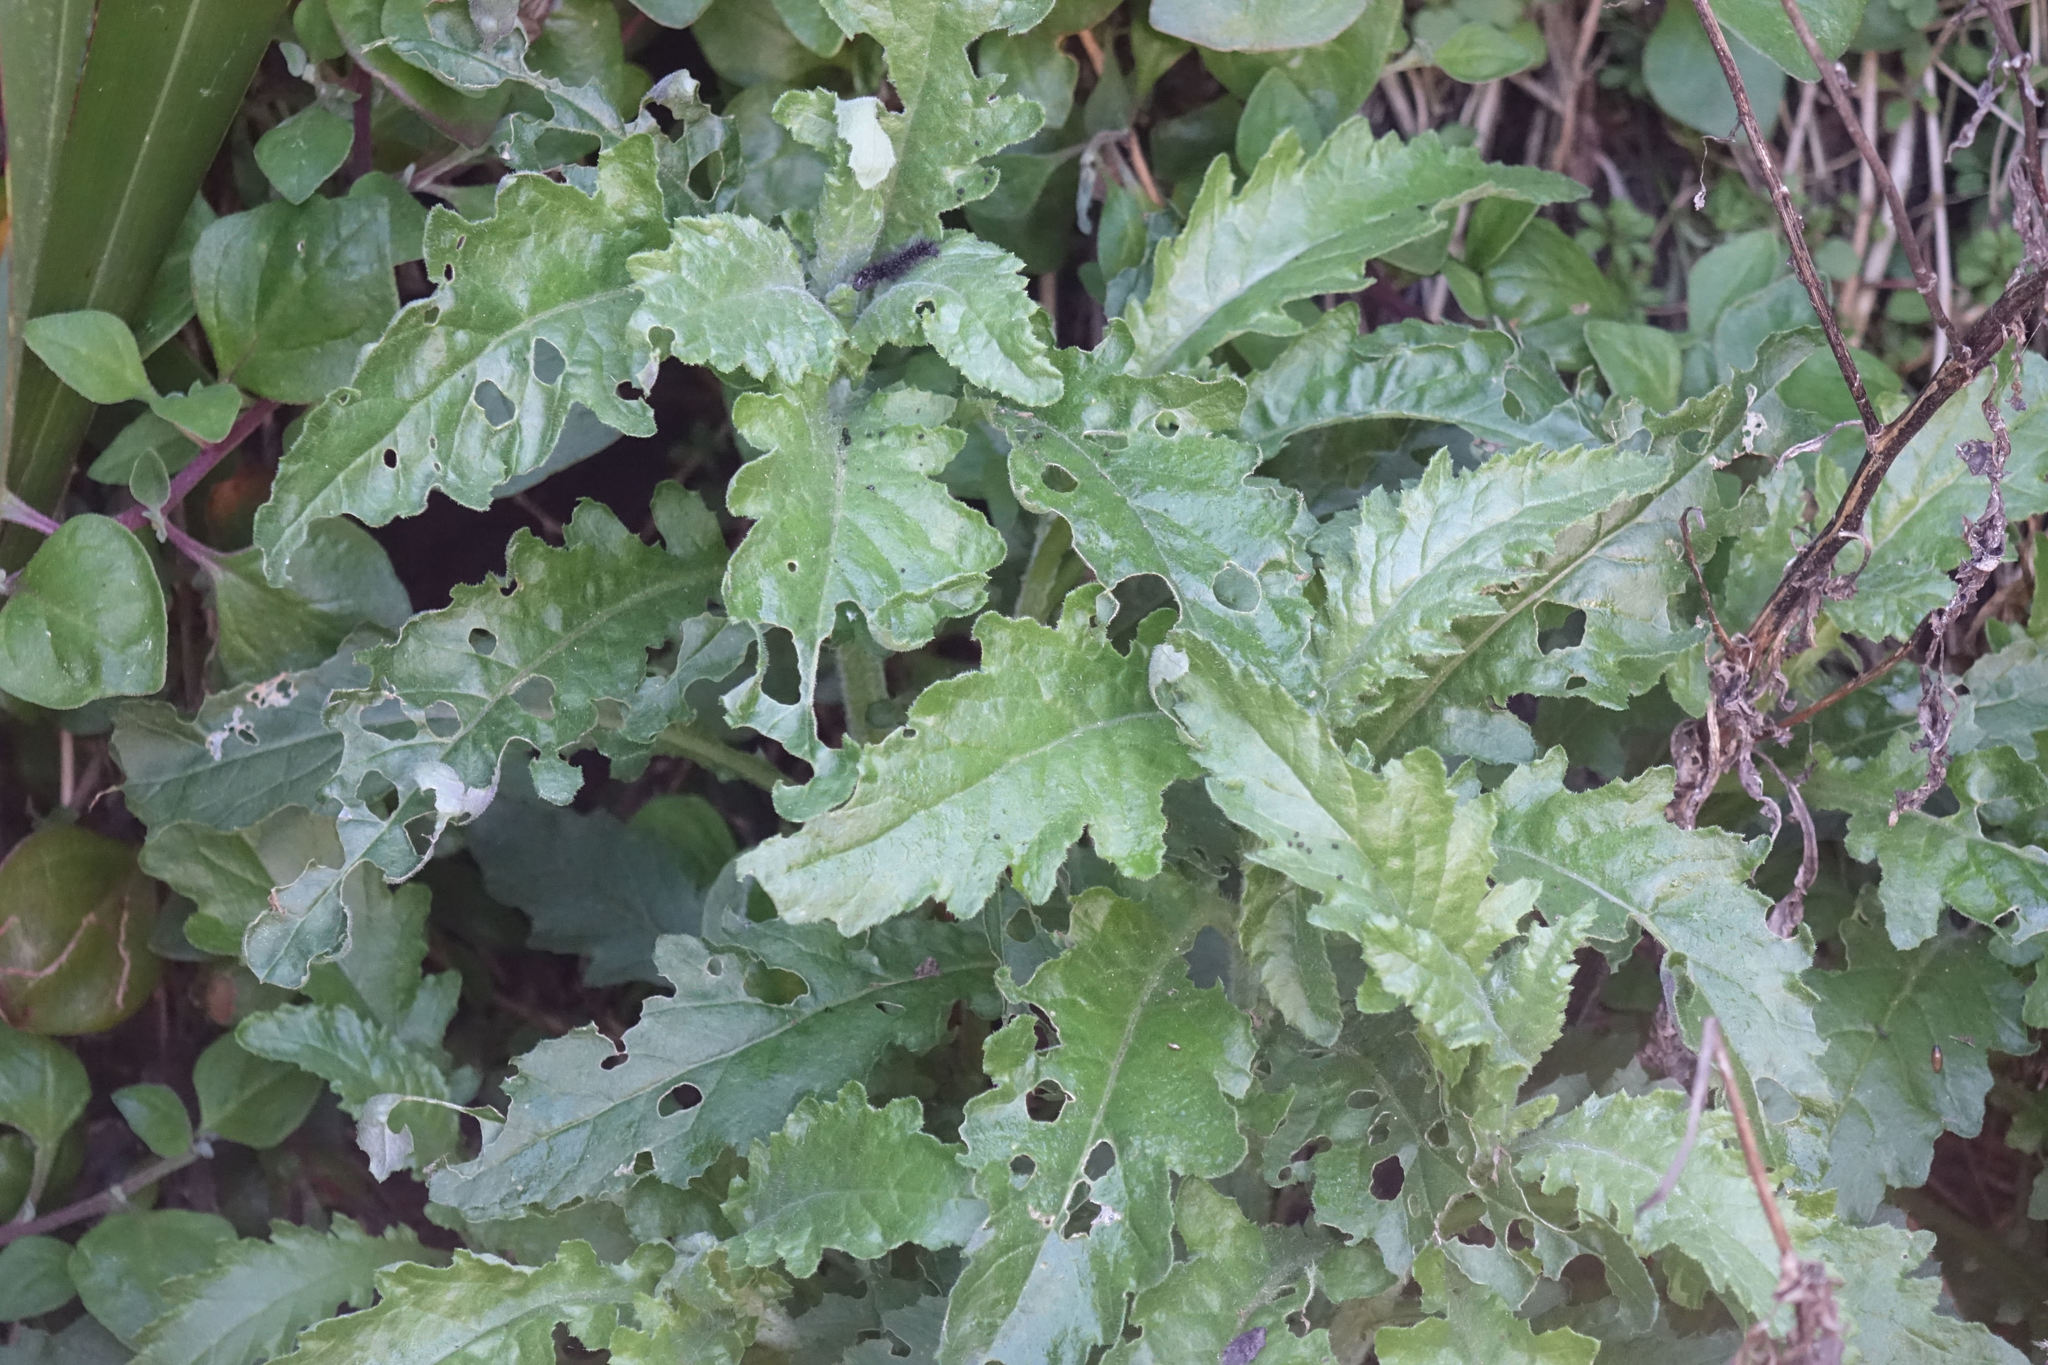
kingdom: Plantae
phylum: Tracheophyta
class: Magnoliopsida
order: Asterales
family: Asteraceae
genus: Senecio
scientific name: Senecio biserratus
